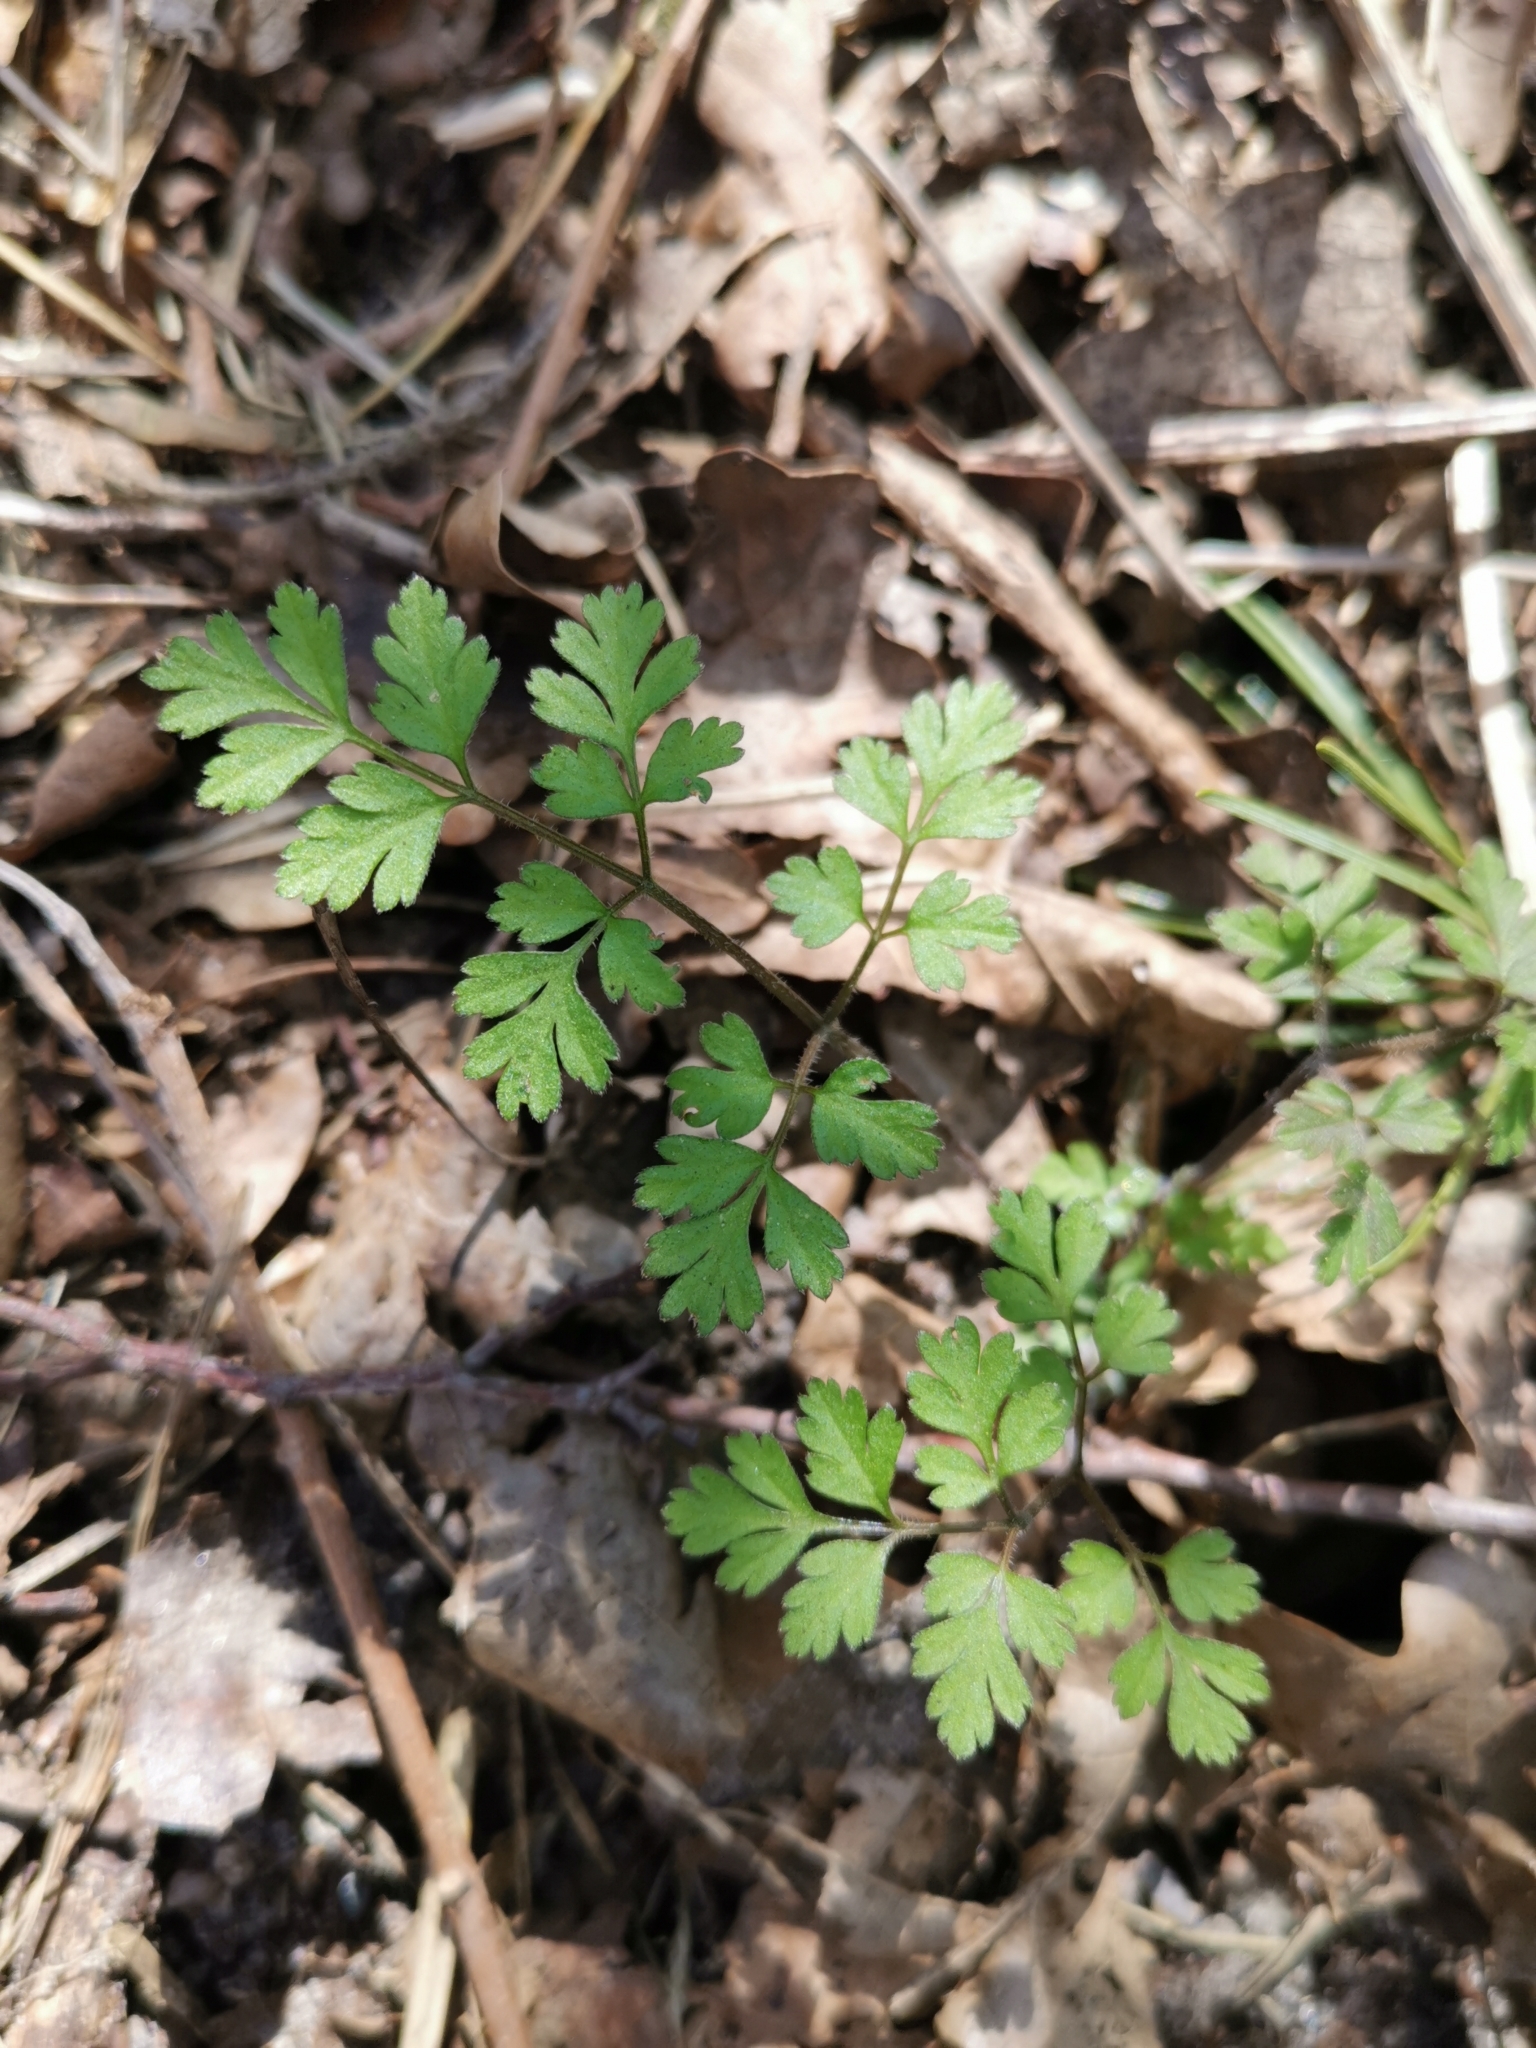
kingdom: Plantae
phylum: Tracheophyta
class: Magnoliopsida
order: Apiales
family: Apiaceae
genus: Chaerophyllum
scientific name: Chaerophyllum temulum
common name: Rough chervil
